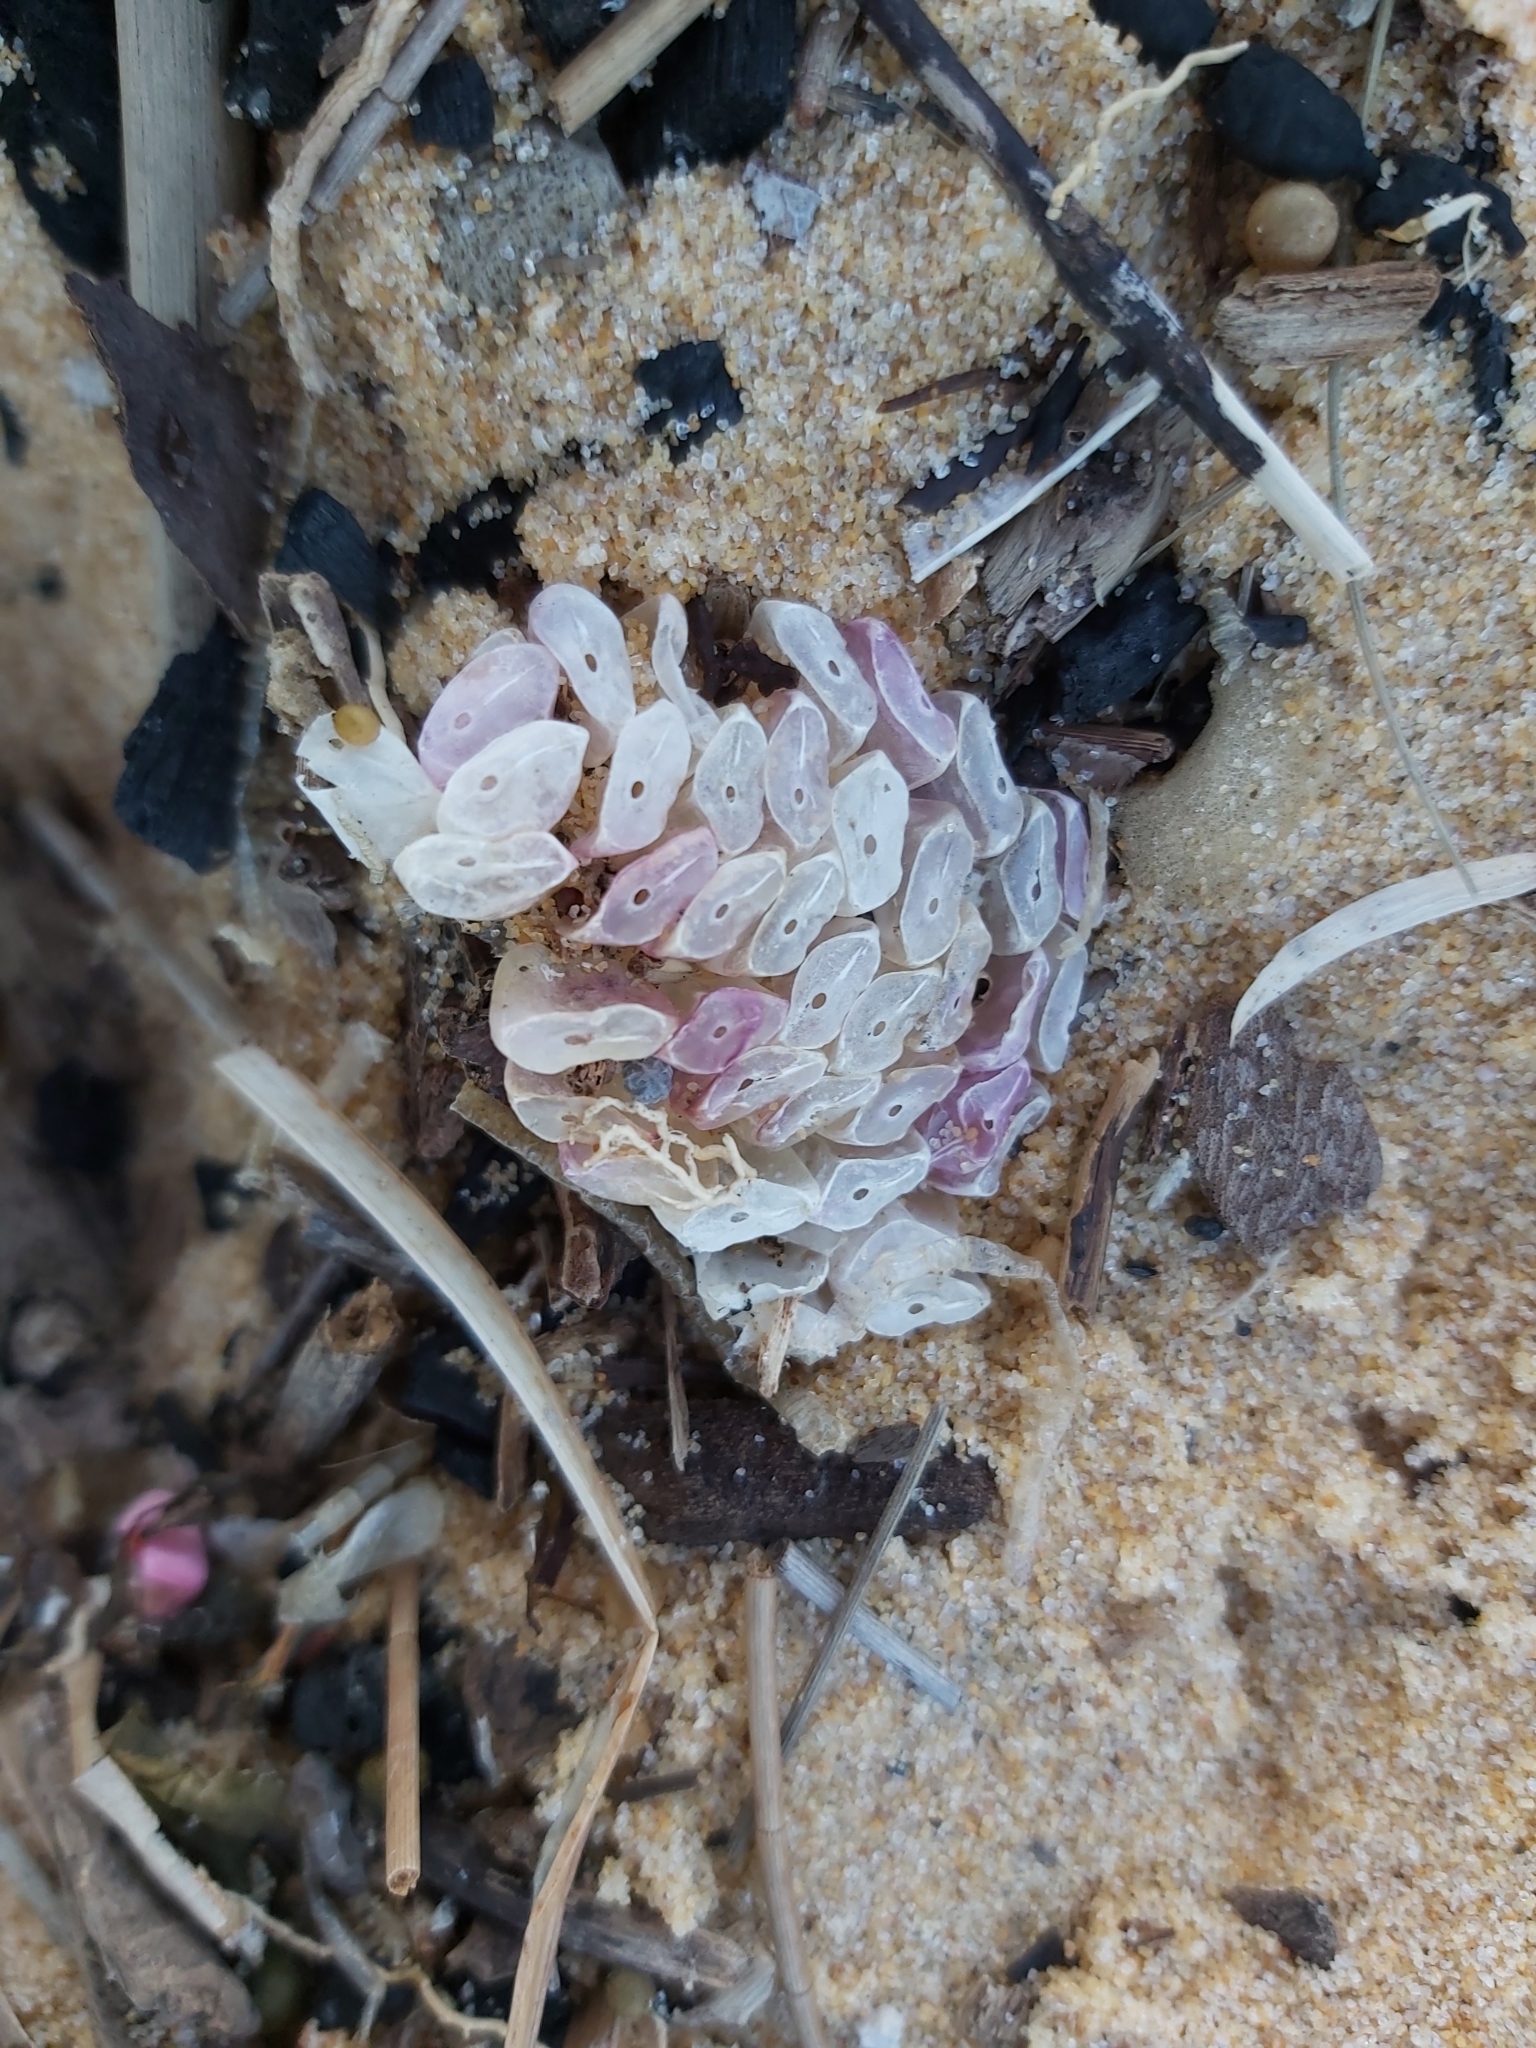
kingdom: Animalia
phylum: Mollusca
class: Gastropoda
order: Neogastropoda
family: Muricidae
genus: Dicathais
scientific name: Dicathais orbita
